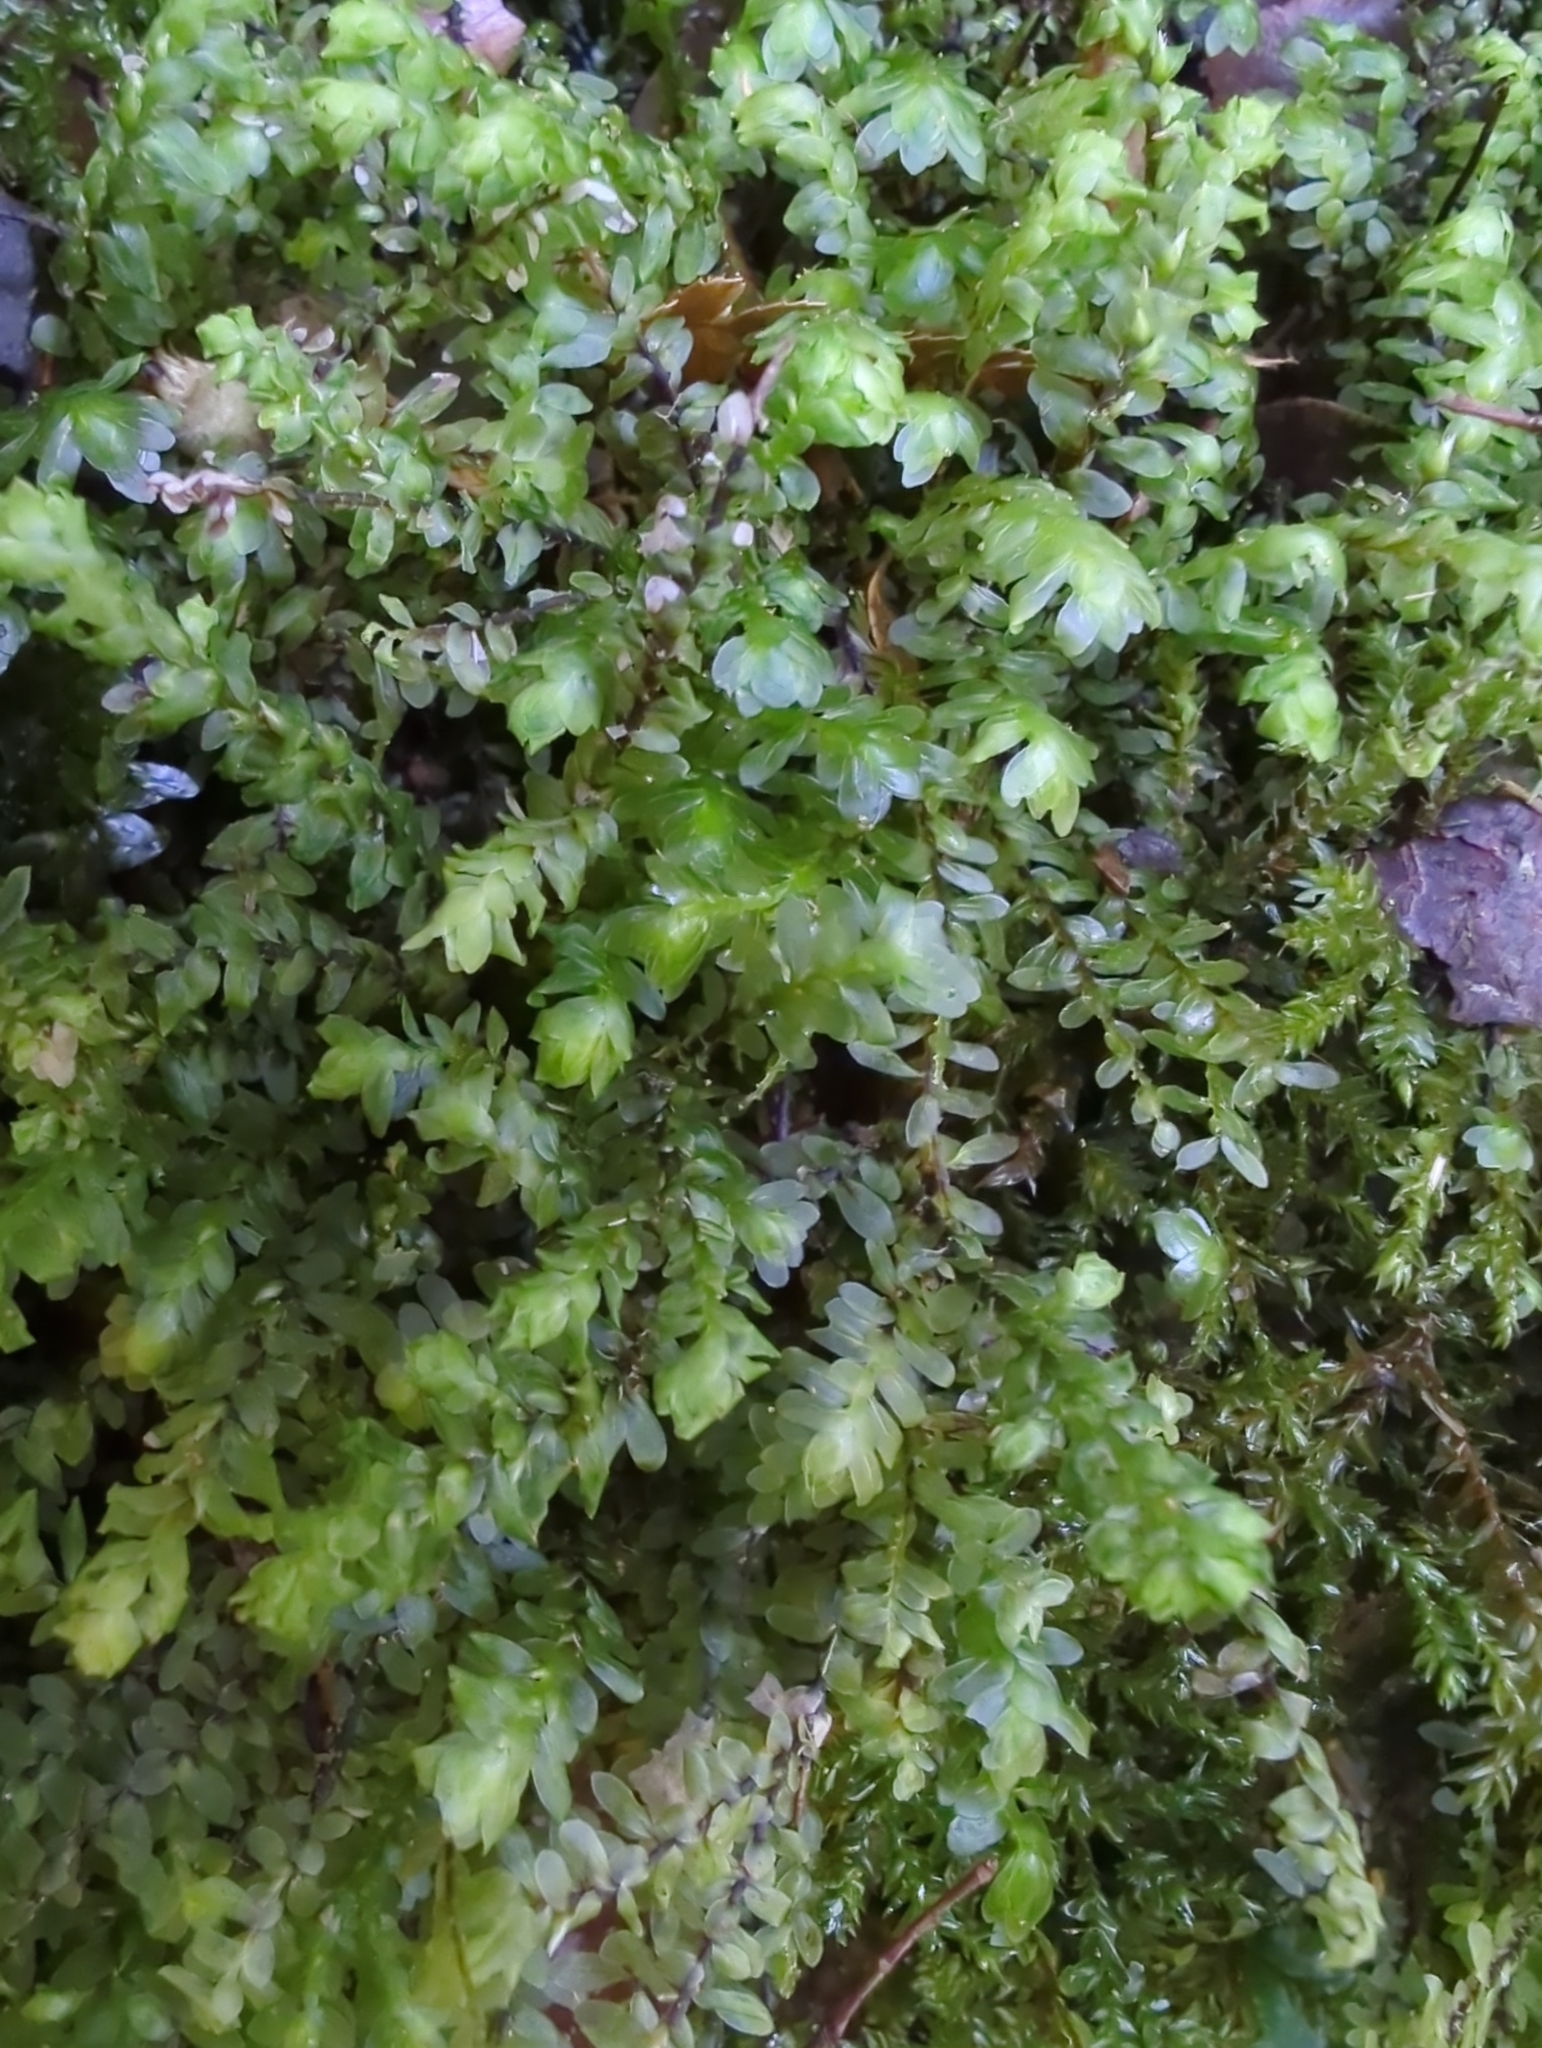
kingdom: Plantae
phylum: Bryophyta
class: Bryopsida
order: Hookeriales
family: Daltoniaceae
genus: Achrophyllum
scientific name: Achrophyllum dentatum
